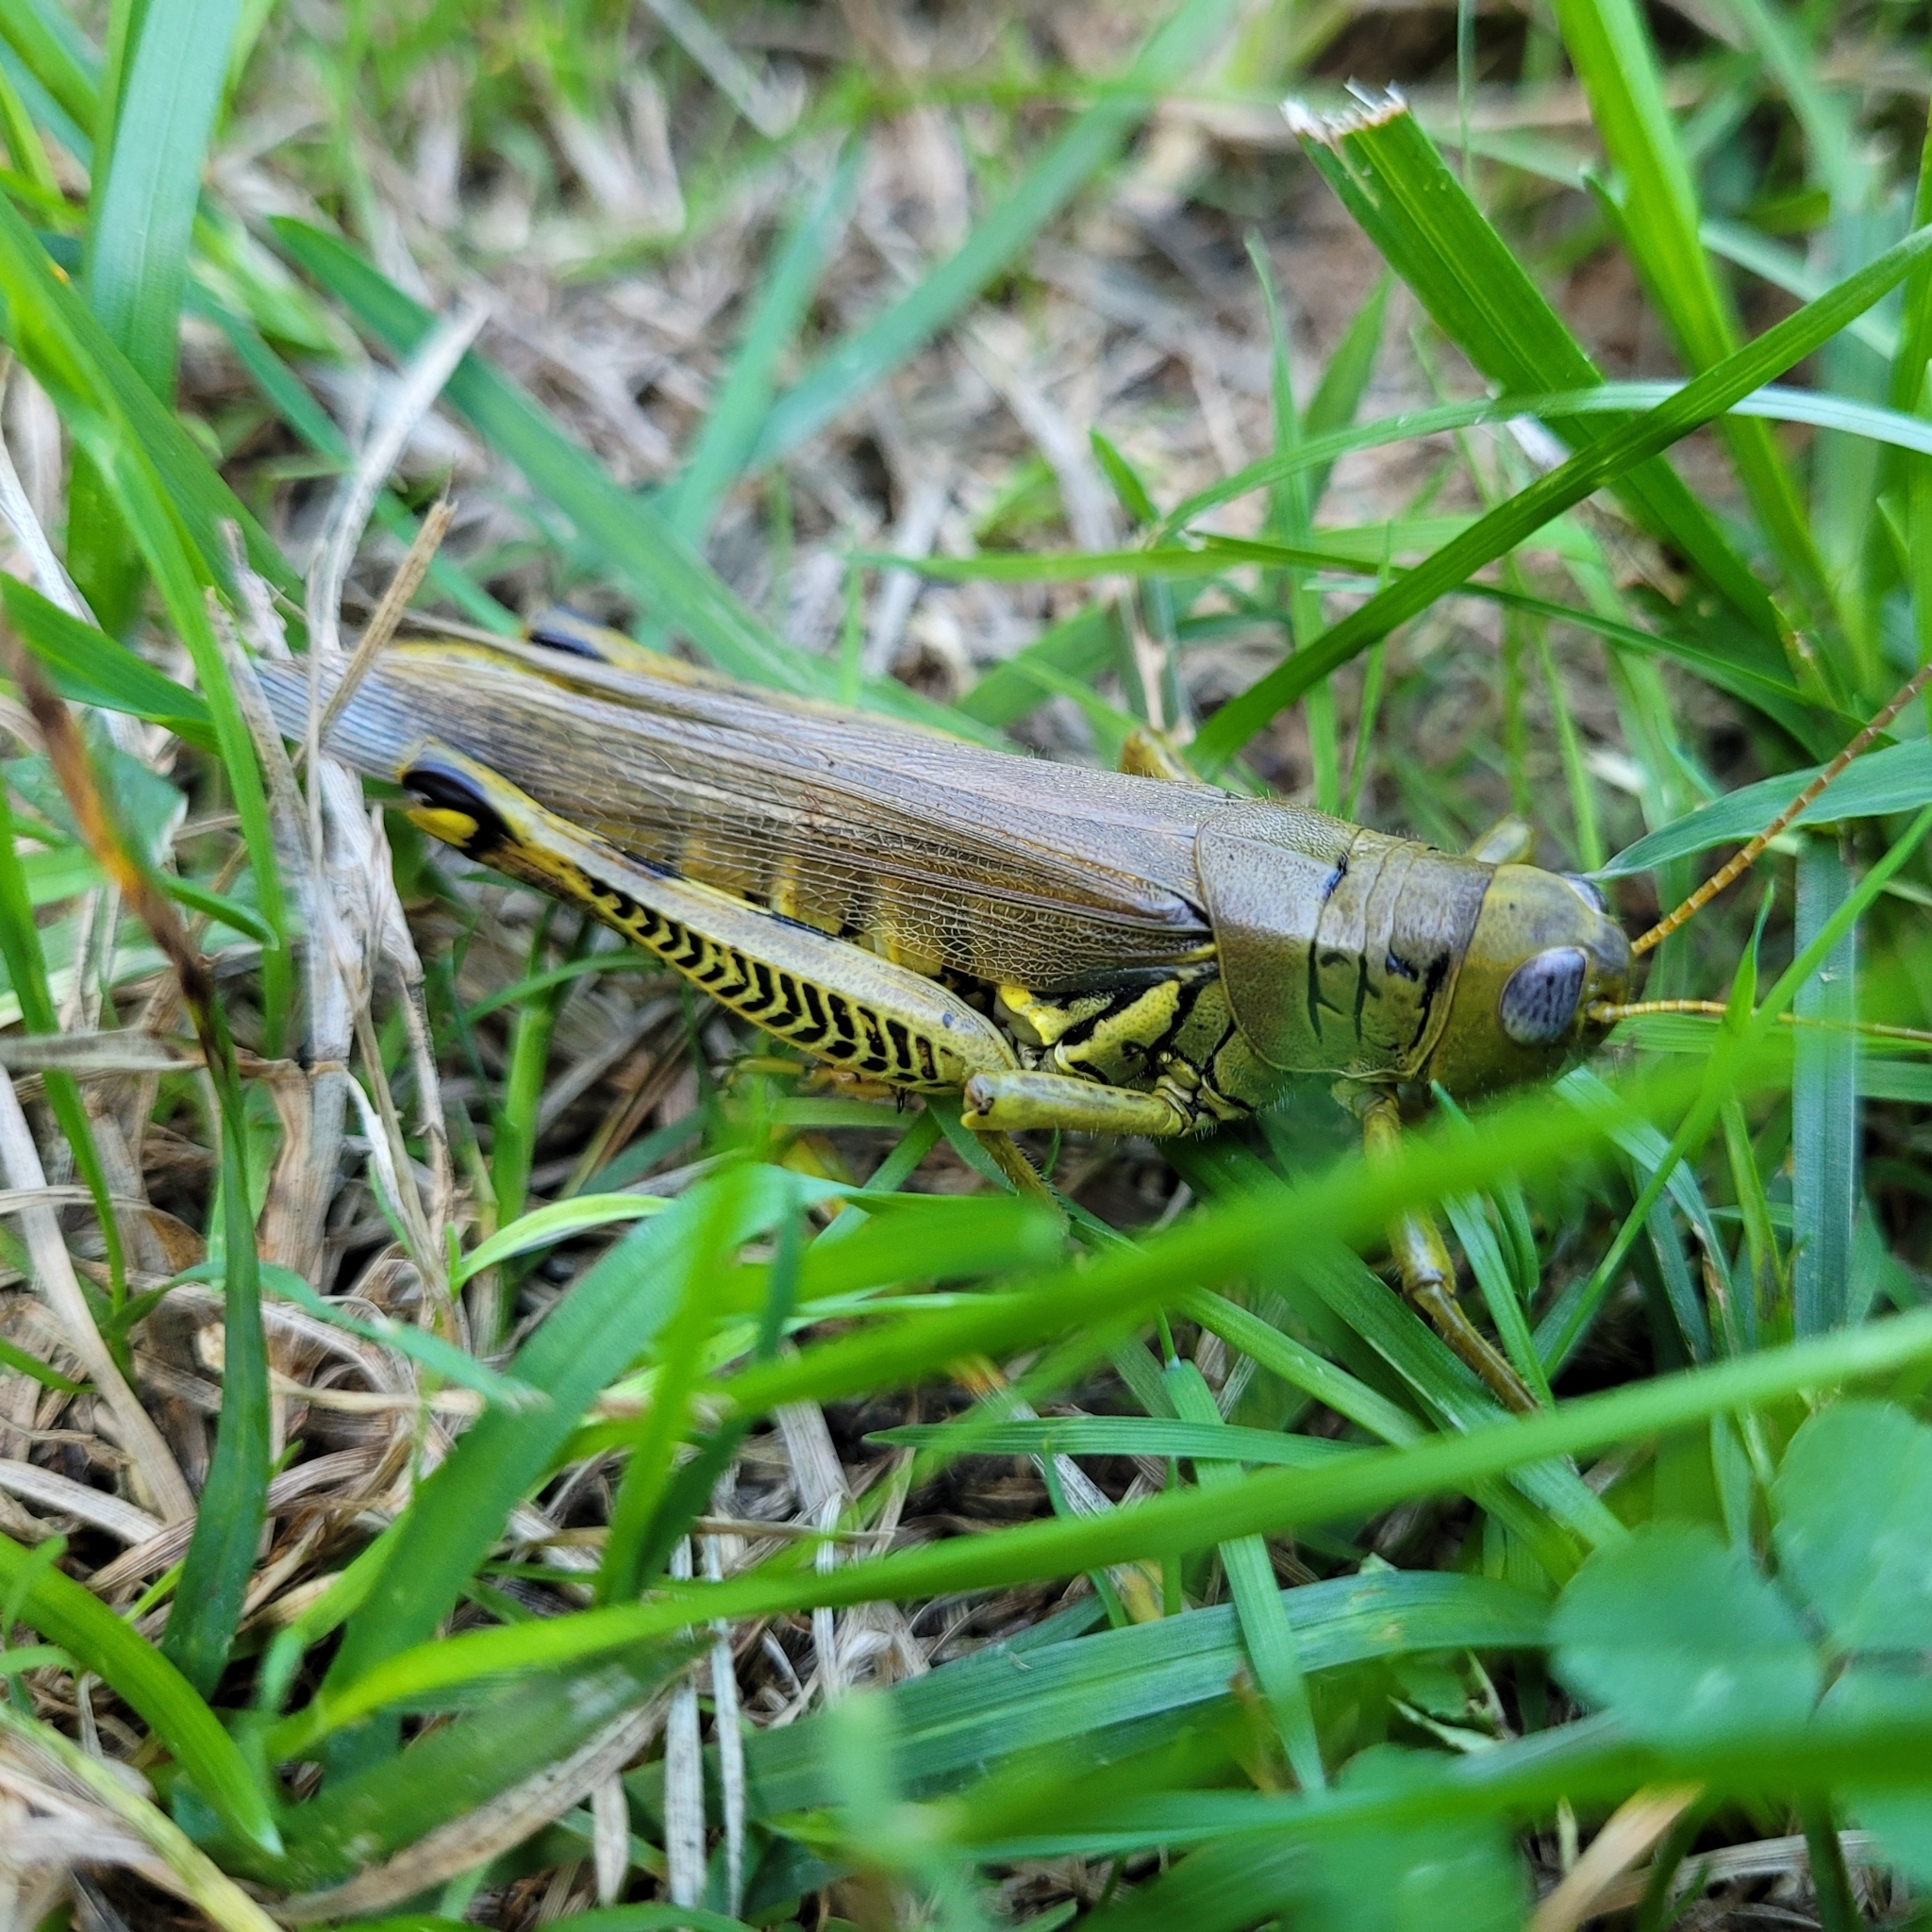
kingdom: Animalia
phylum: Arthropoda
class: Insecta
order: Orthoptera
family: Acrididae
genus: Melanoplus
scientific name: Melanoplus differentialis
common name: Differential grasshopper
